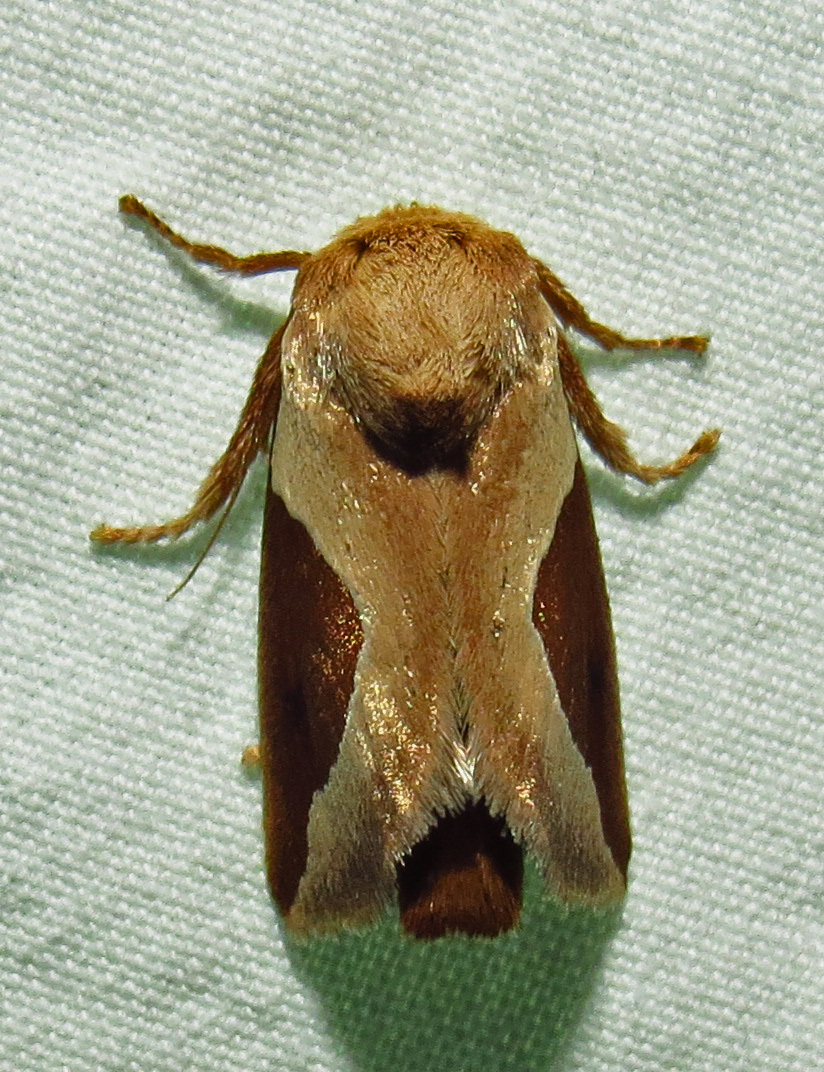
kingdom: Animalia
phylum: Arthropoda
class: Insecta
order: Lepidoptera
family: Limacodidae
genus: Prolimacodes
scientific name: Prolimacodes badia
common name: Skiff moth
